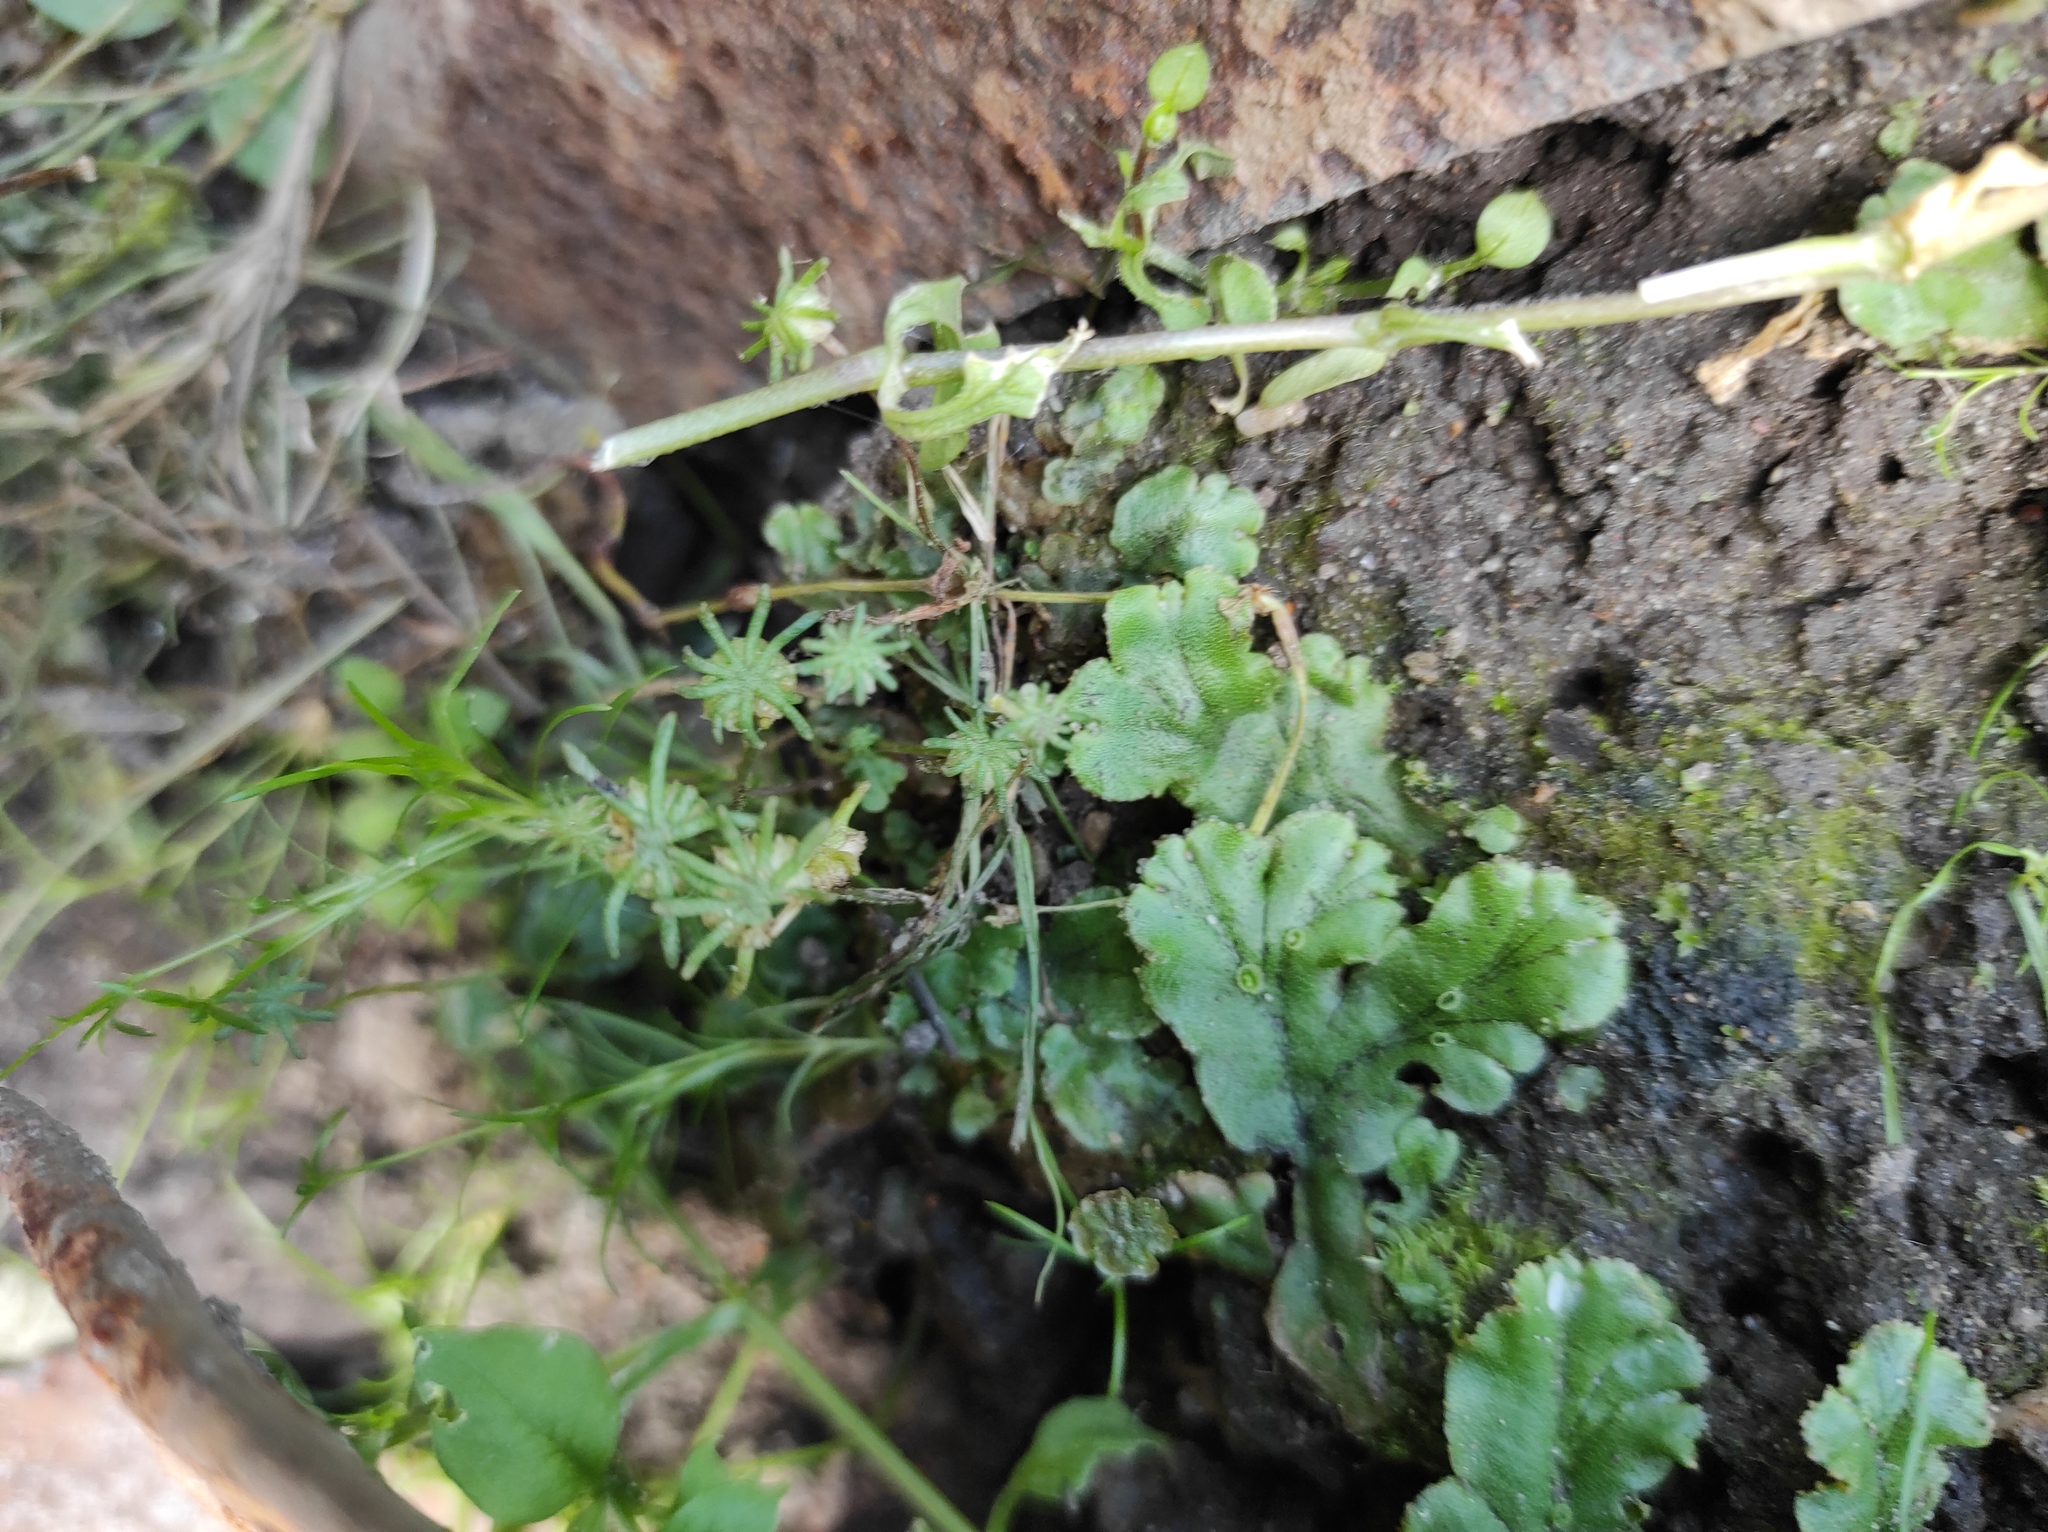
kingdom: Plantae
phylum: Marchantiophyta
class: Marchantiopsida
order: Marchantiales
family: Marchantiaceae
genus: Marchantia
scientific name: Marchantia polymorpha
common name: Common liverwort
